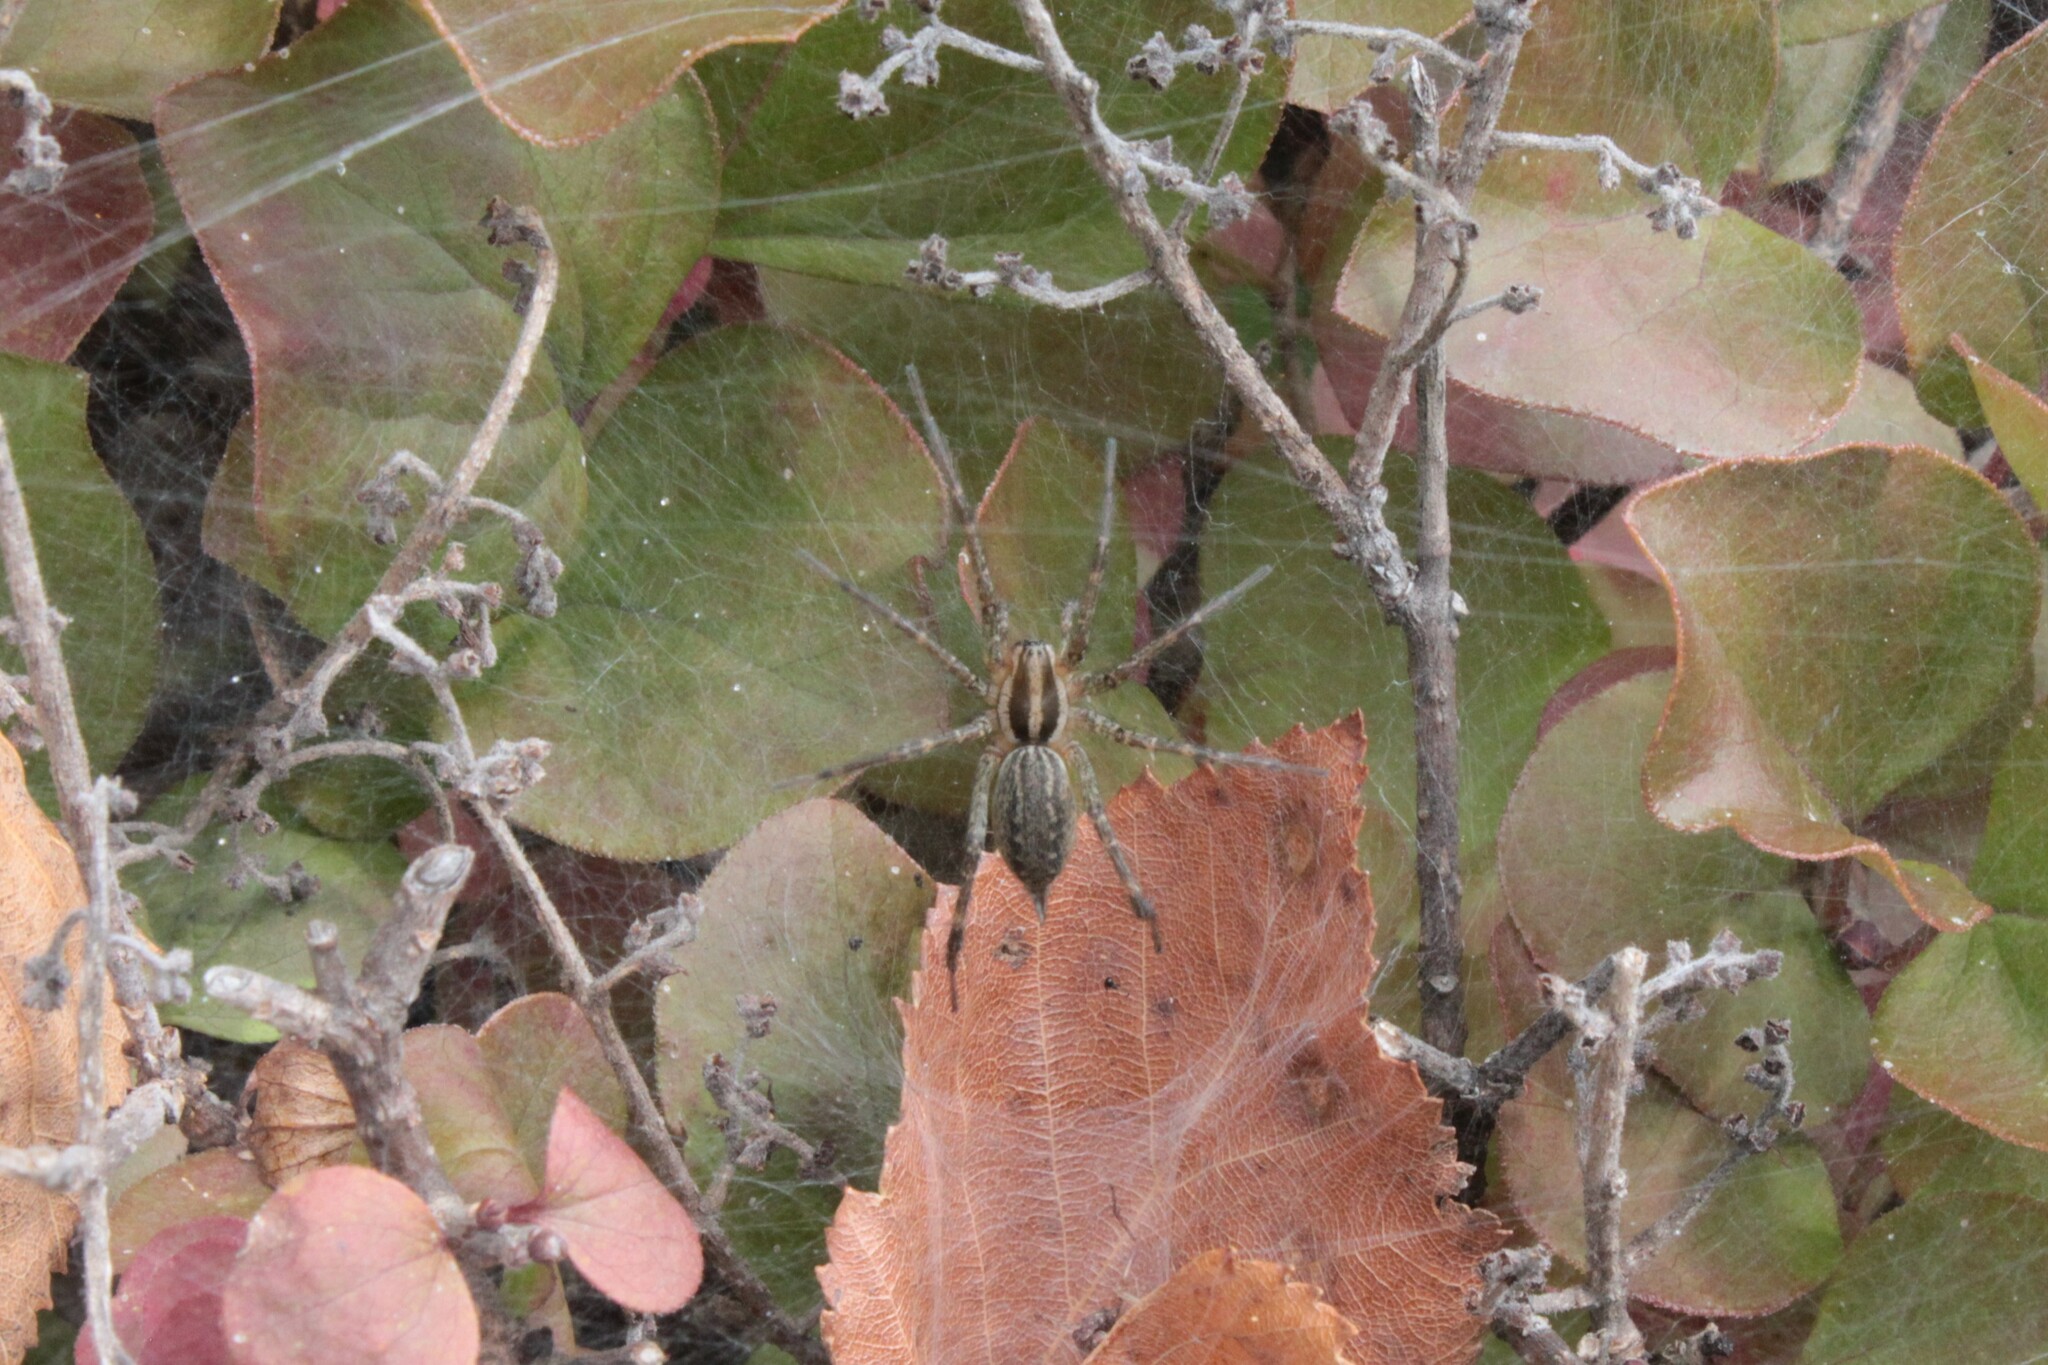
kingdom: Animalia
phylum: Arthropoda
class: Arachnida
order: Araneae
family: Agelenidae
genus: Agelenopsis
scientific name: Agelenopsis
